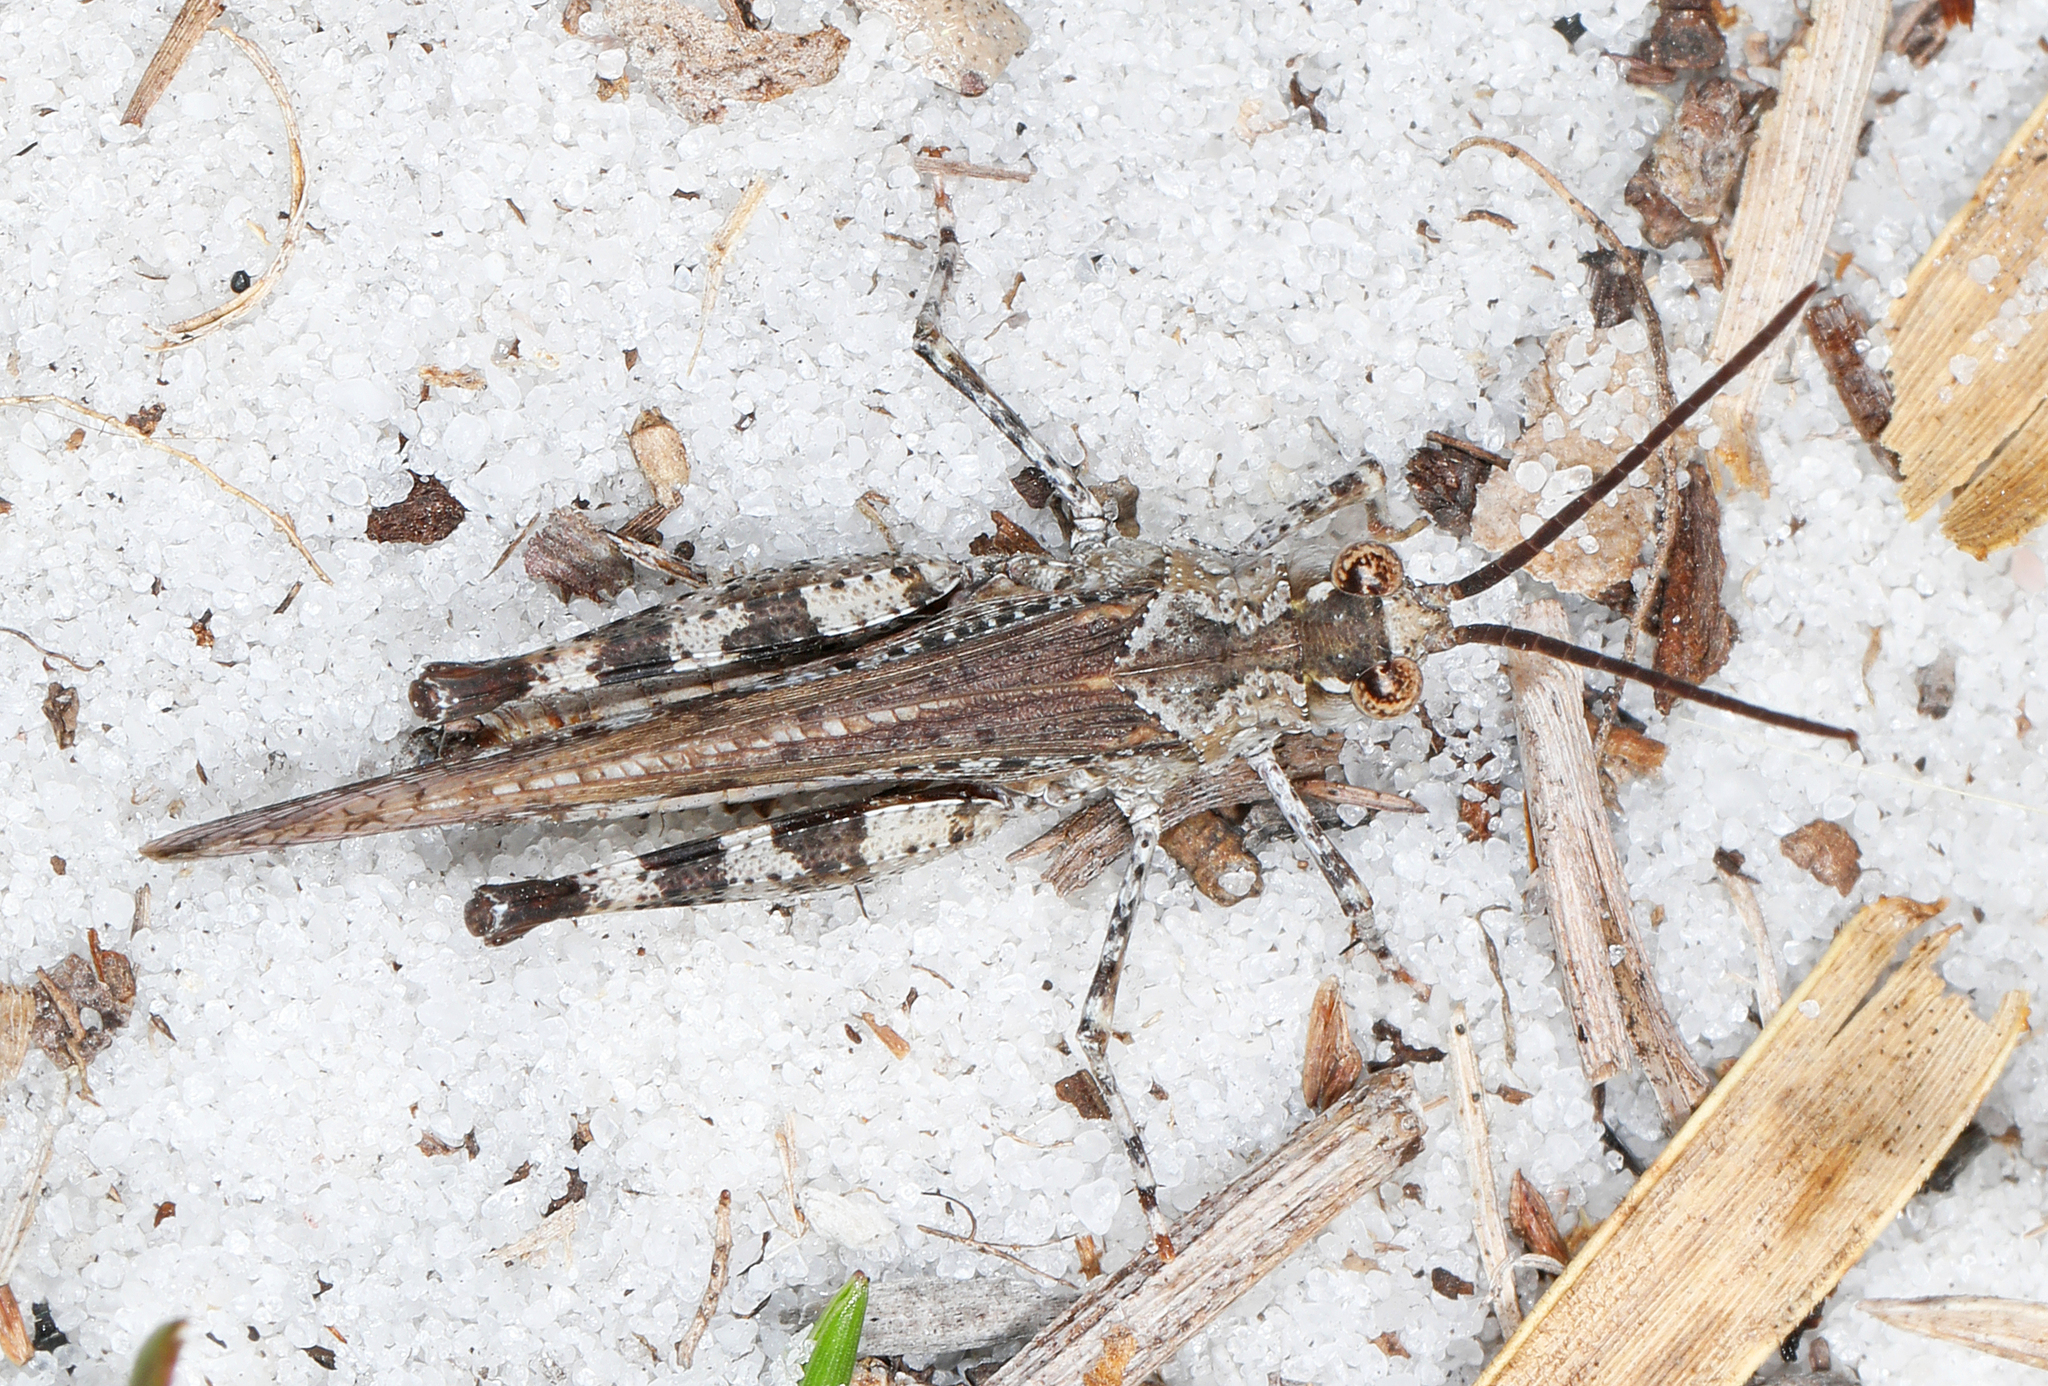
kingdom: Animalia
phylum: Arthropoda
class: Insecta
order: Orthoptera
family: Acrididae
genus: Psinidia
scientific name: Psinidia fenestralis
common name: Long-horned locust
